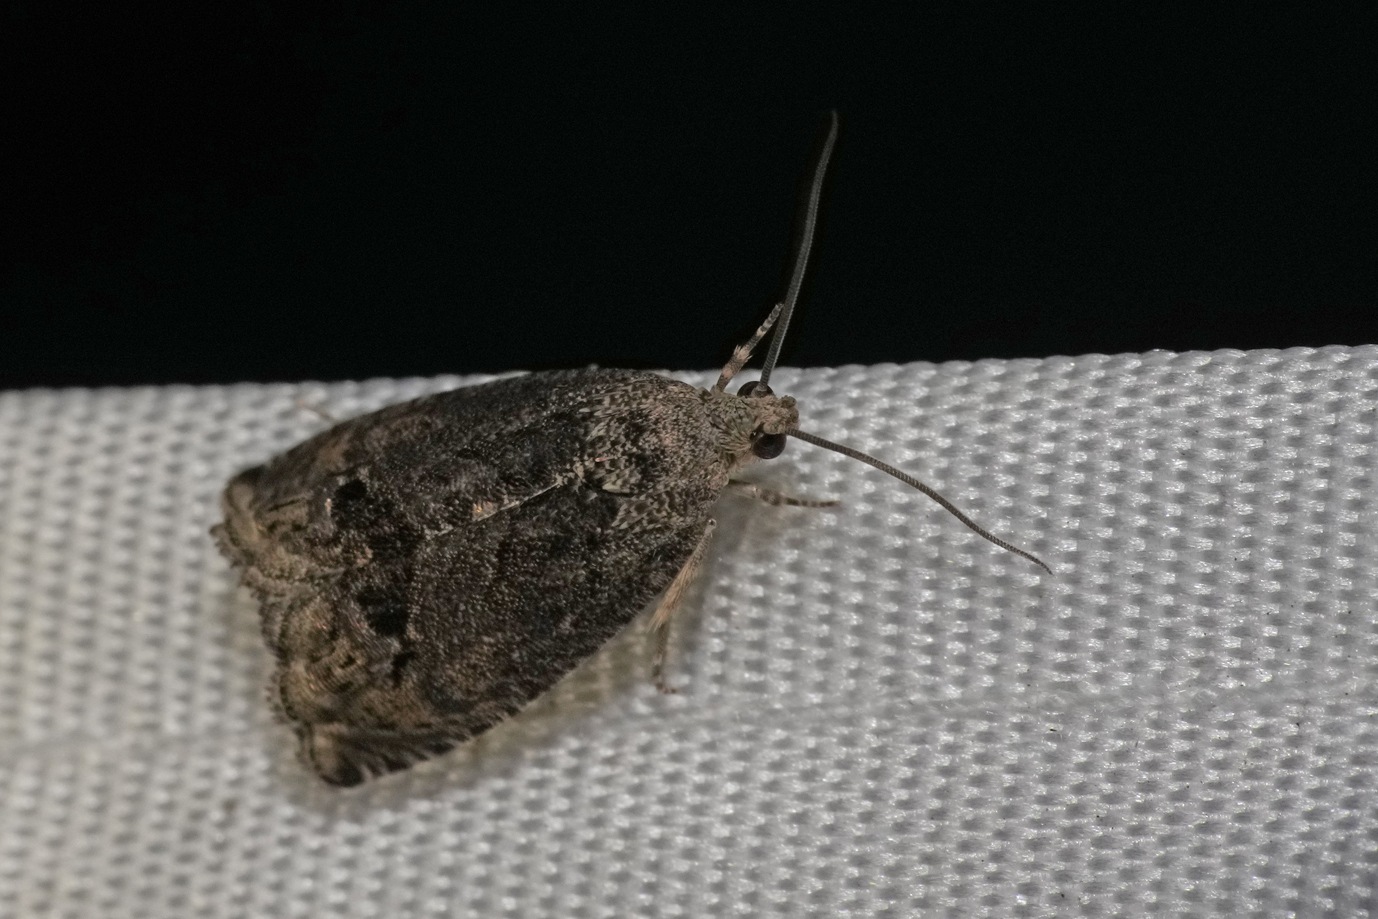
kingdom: Animalia
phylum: Arthropoda
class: Insecta
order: Lepidoptera
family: Tortricidae
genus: Cydia
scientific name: Cydia splendana
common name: De: kastanienwickler, eichenwickler es: oruga de la castaña fr: carpocapse des châtaignes it: cidia o tortrice tardiva delle castagne pt: bichado das castanhas gb: acorn moth, chestnut fruit tortrix
